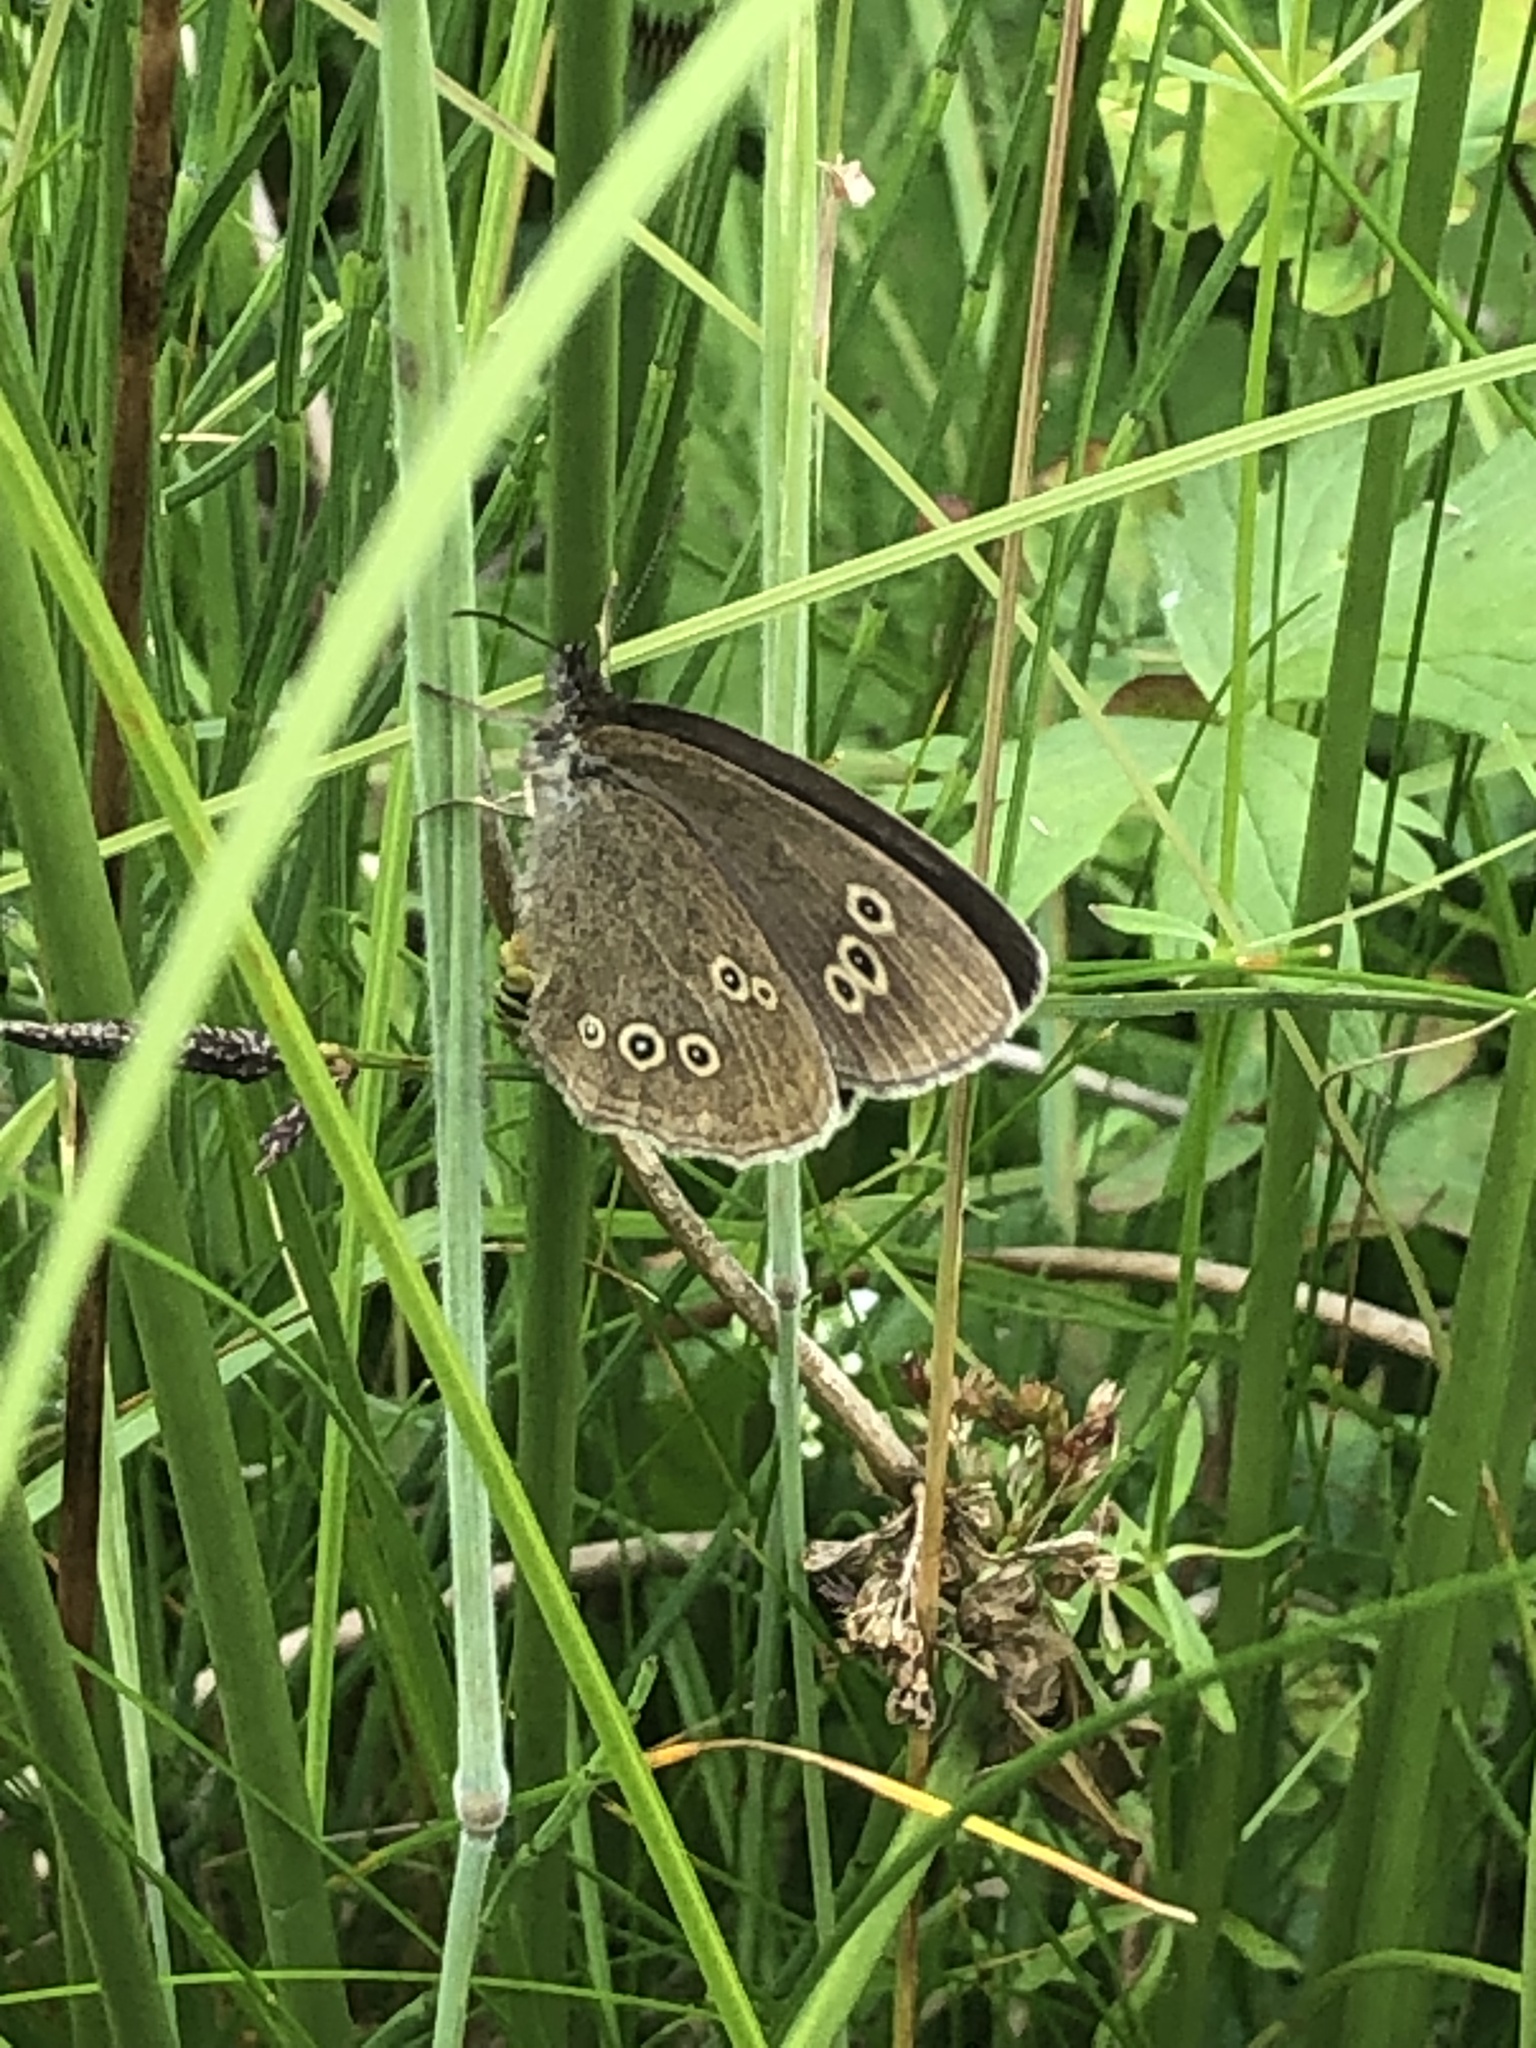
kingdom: Animalia
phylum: Arthropoda
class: Insecta
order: Lepidoptera
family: Nymphalidae
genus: Aphantopus
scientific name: Aphantopus hyperantus
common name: Ringlet
